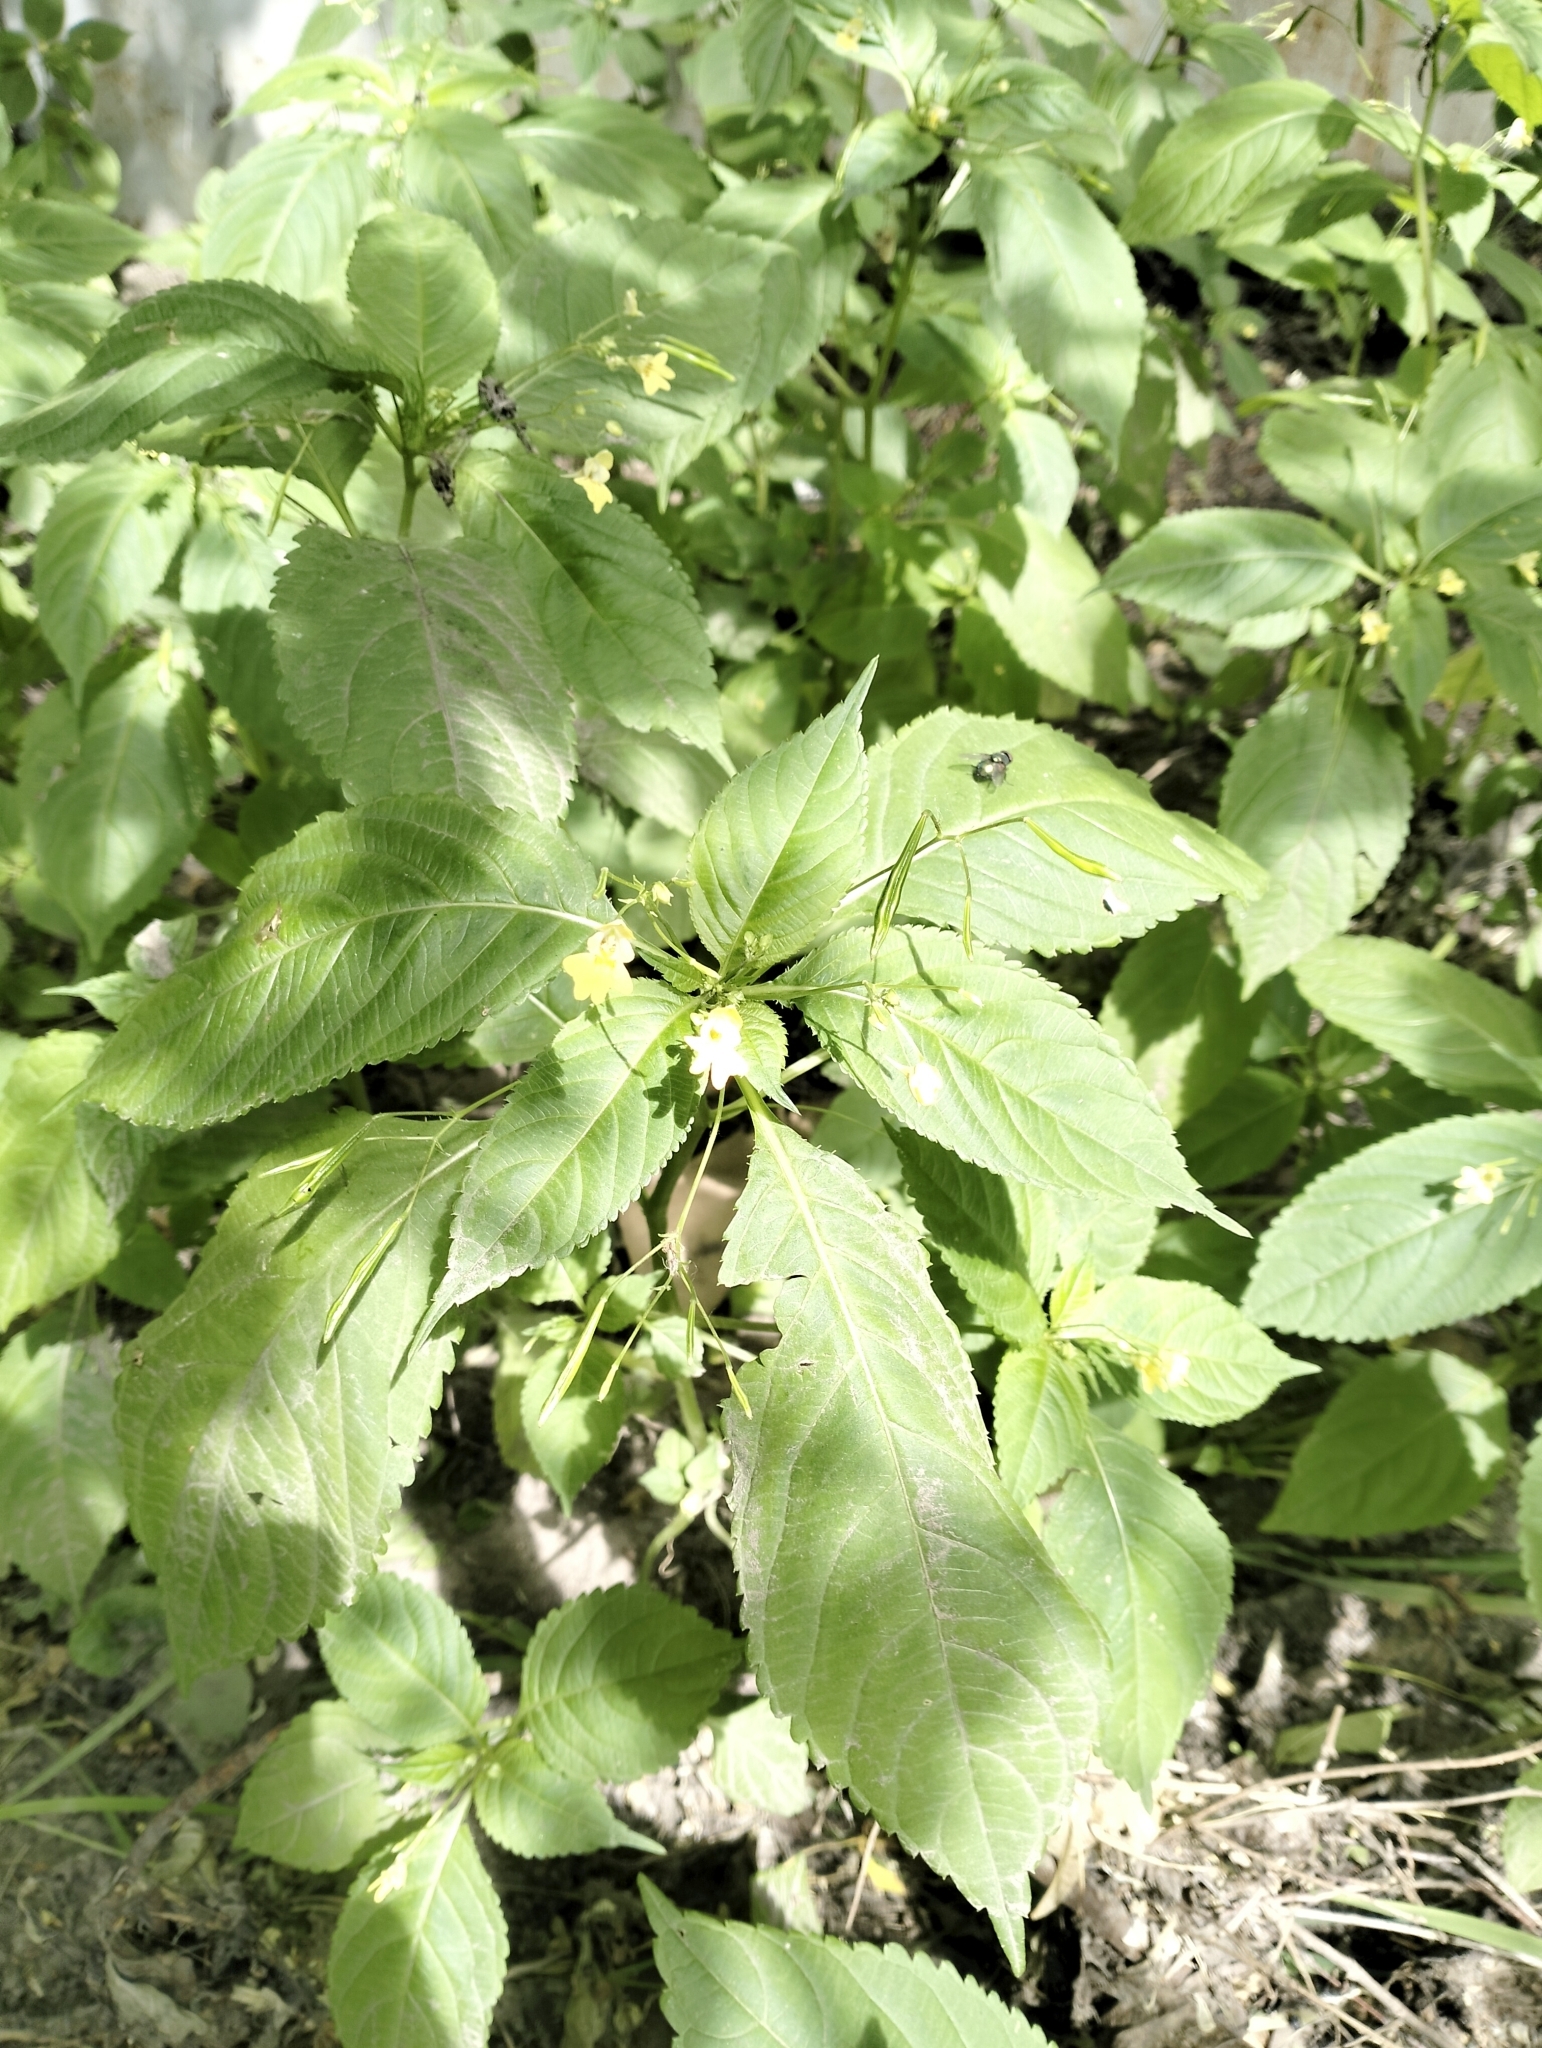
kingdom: Plantae
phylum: Tracheophyta
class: Magnoliopsida
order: Ericales
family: Balsaminaceae
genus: Impatiens
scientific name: Impatiens parviflora
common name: Small balsam
